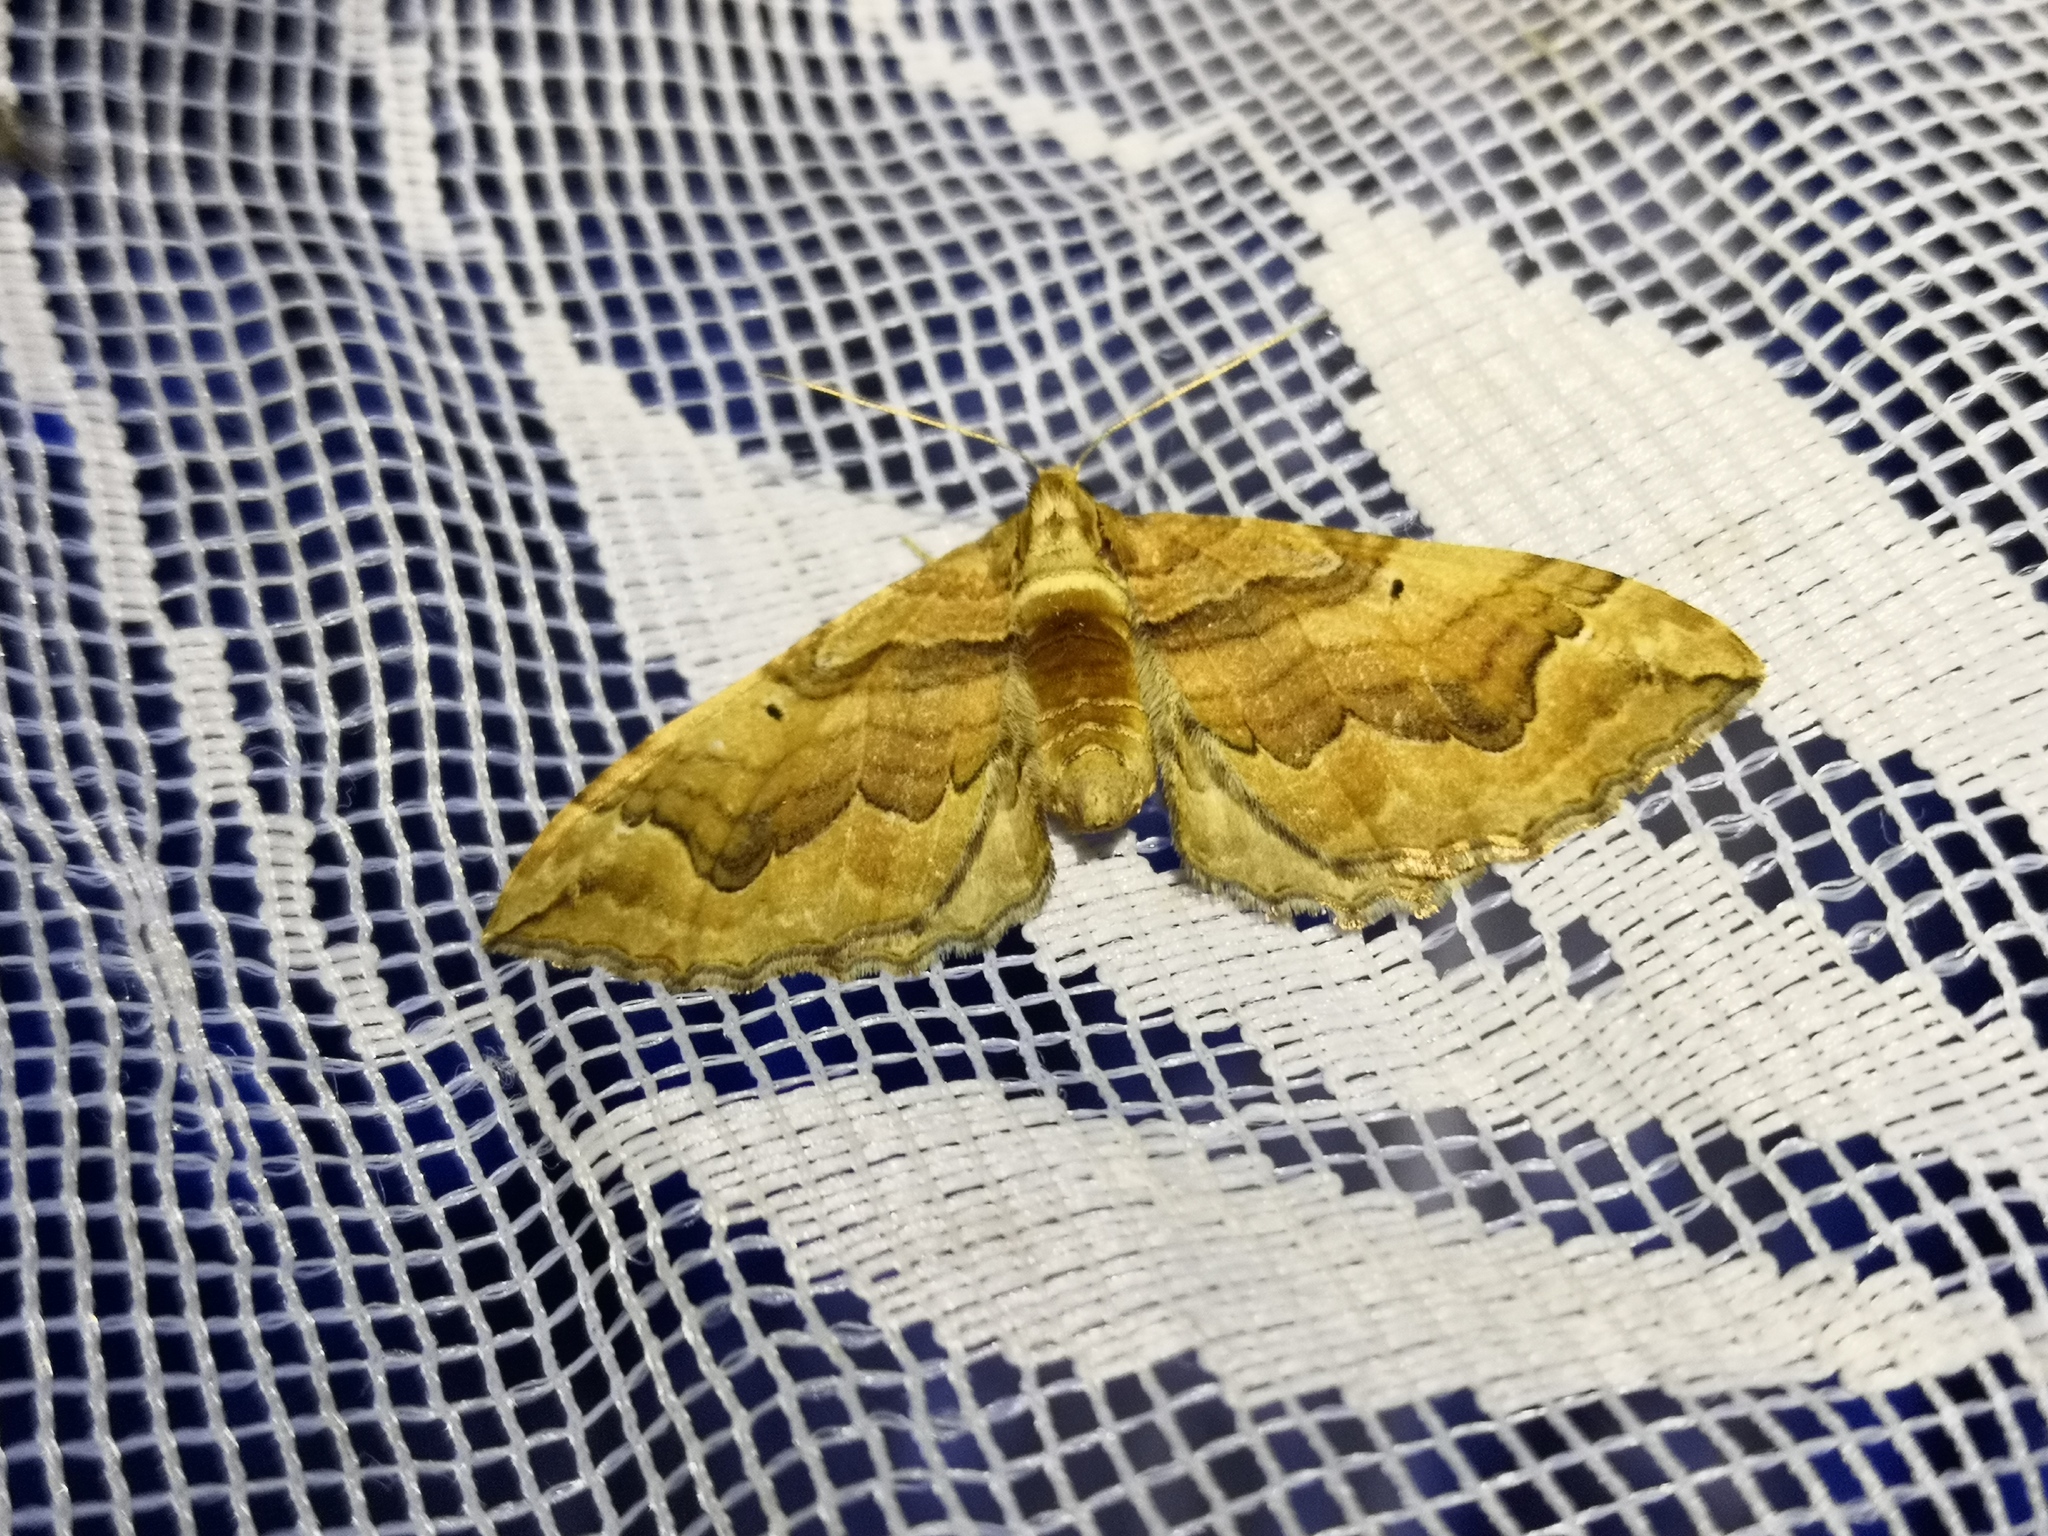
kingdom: Animalia
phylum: Arthropoda
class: Insecta
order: Lepidoptera
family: Geometridae
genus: Pelurga
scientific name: Pelurga comitata
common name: Dark spinach
